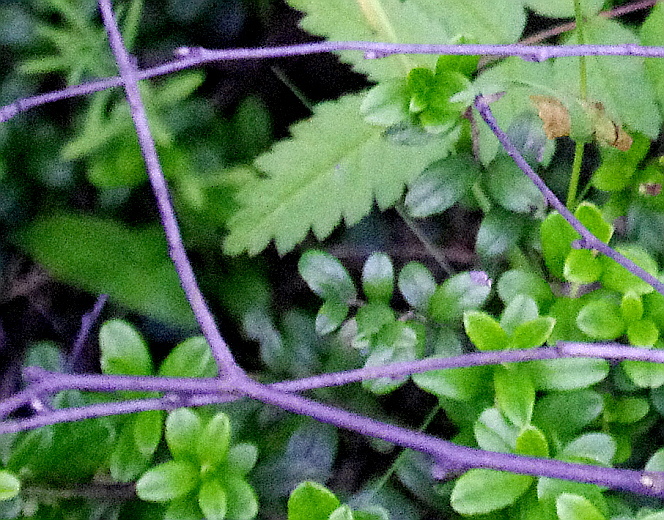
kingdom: Plantae
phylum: Tracheophyta
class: Magnoliopsida
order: Ericales
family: Ericaceae
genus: Vaccinium
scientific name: Vaccinium vitis-idaea
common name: Cowberry
